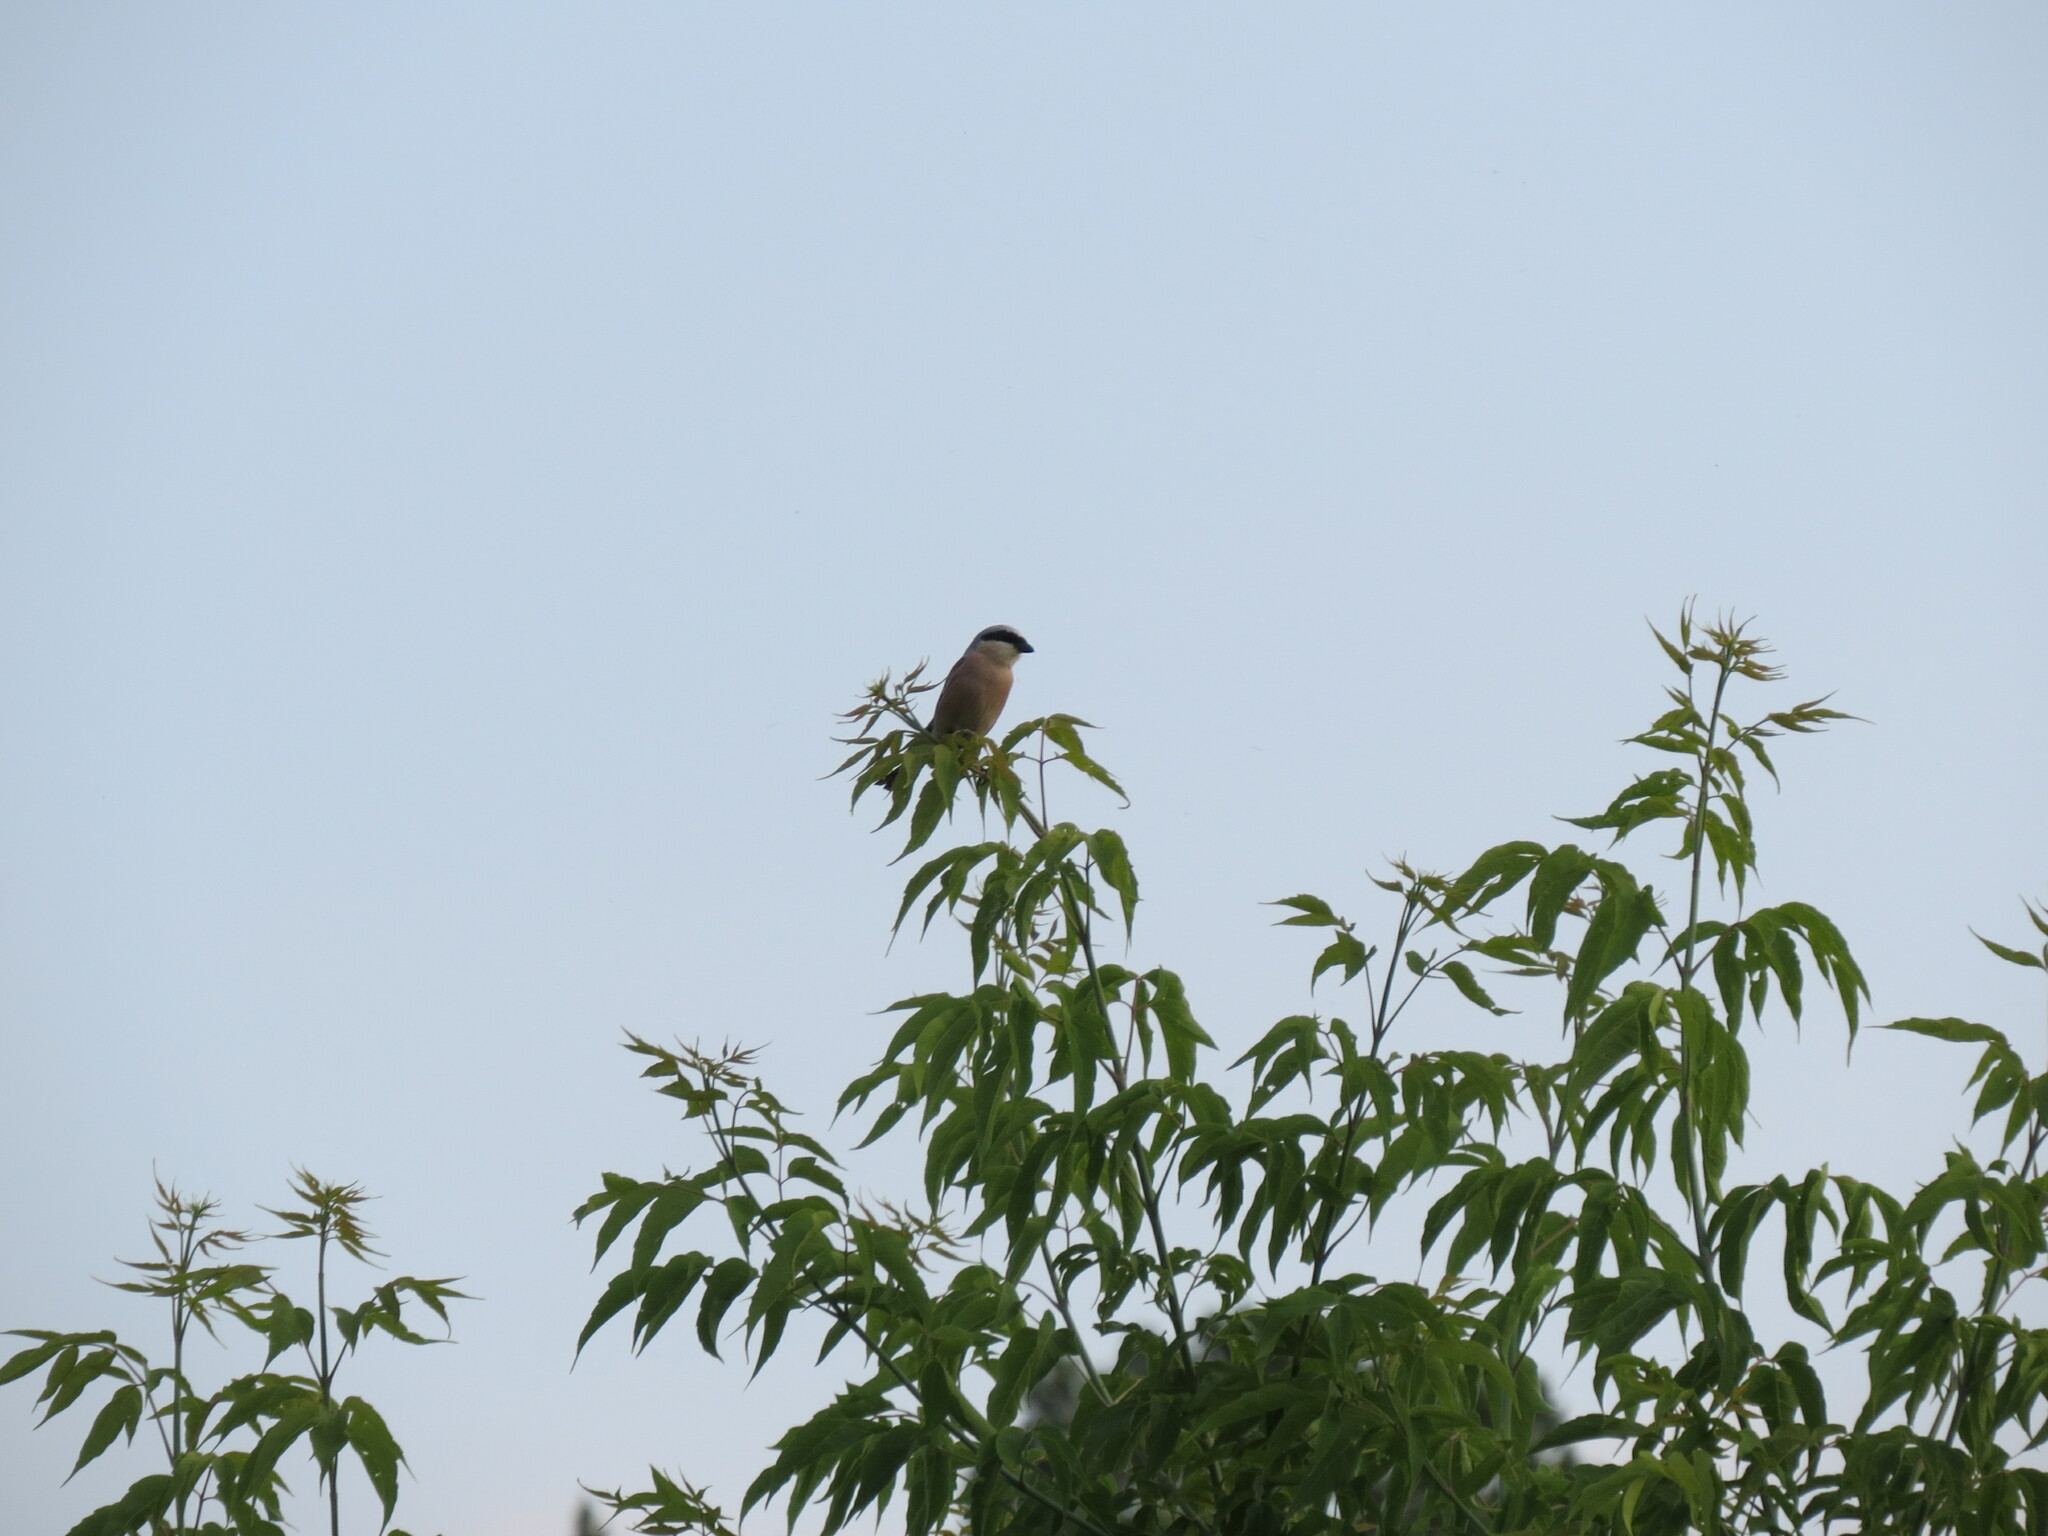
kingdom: Animalia
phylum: Chordata
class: Aves
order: Passeriformes
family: Laniidae
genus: Lanius
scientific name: Lanius collurio
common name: Red-backed shrike
